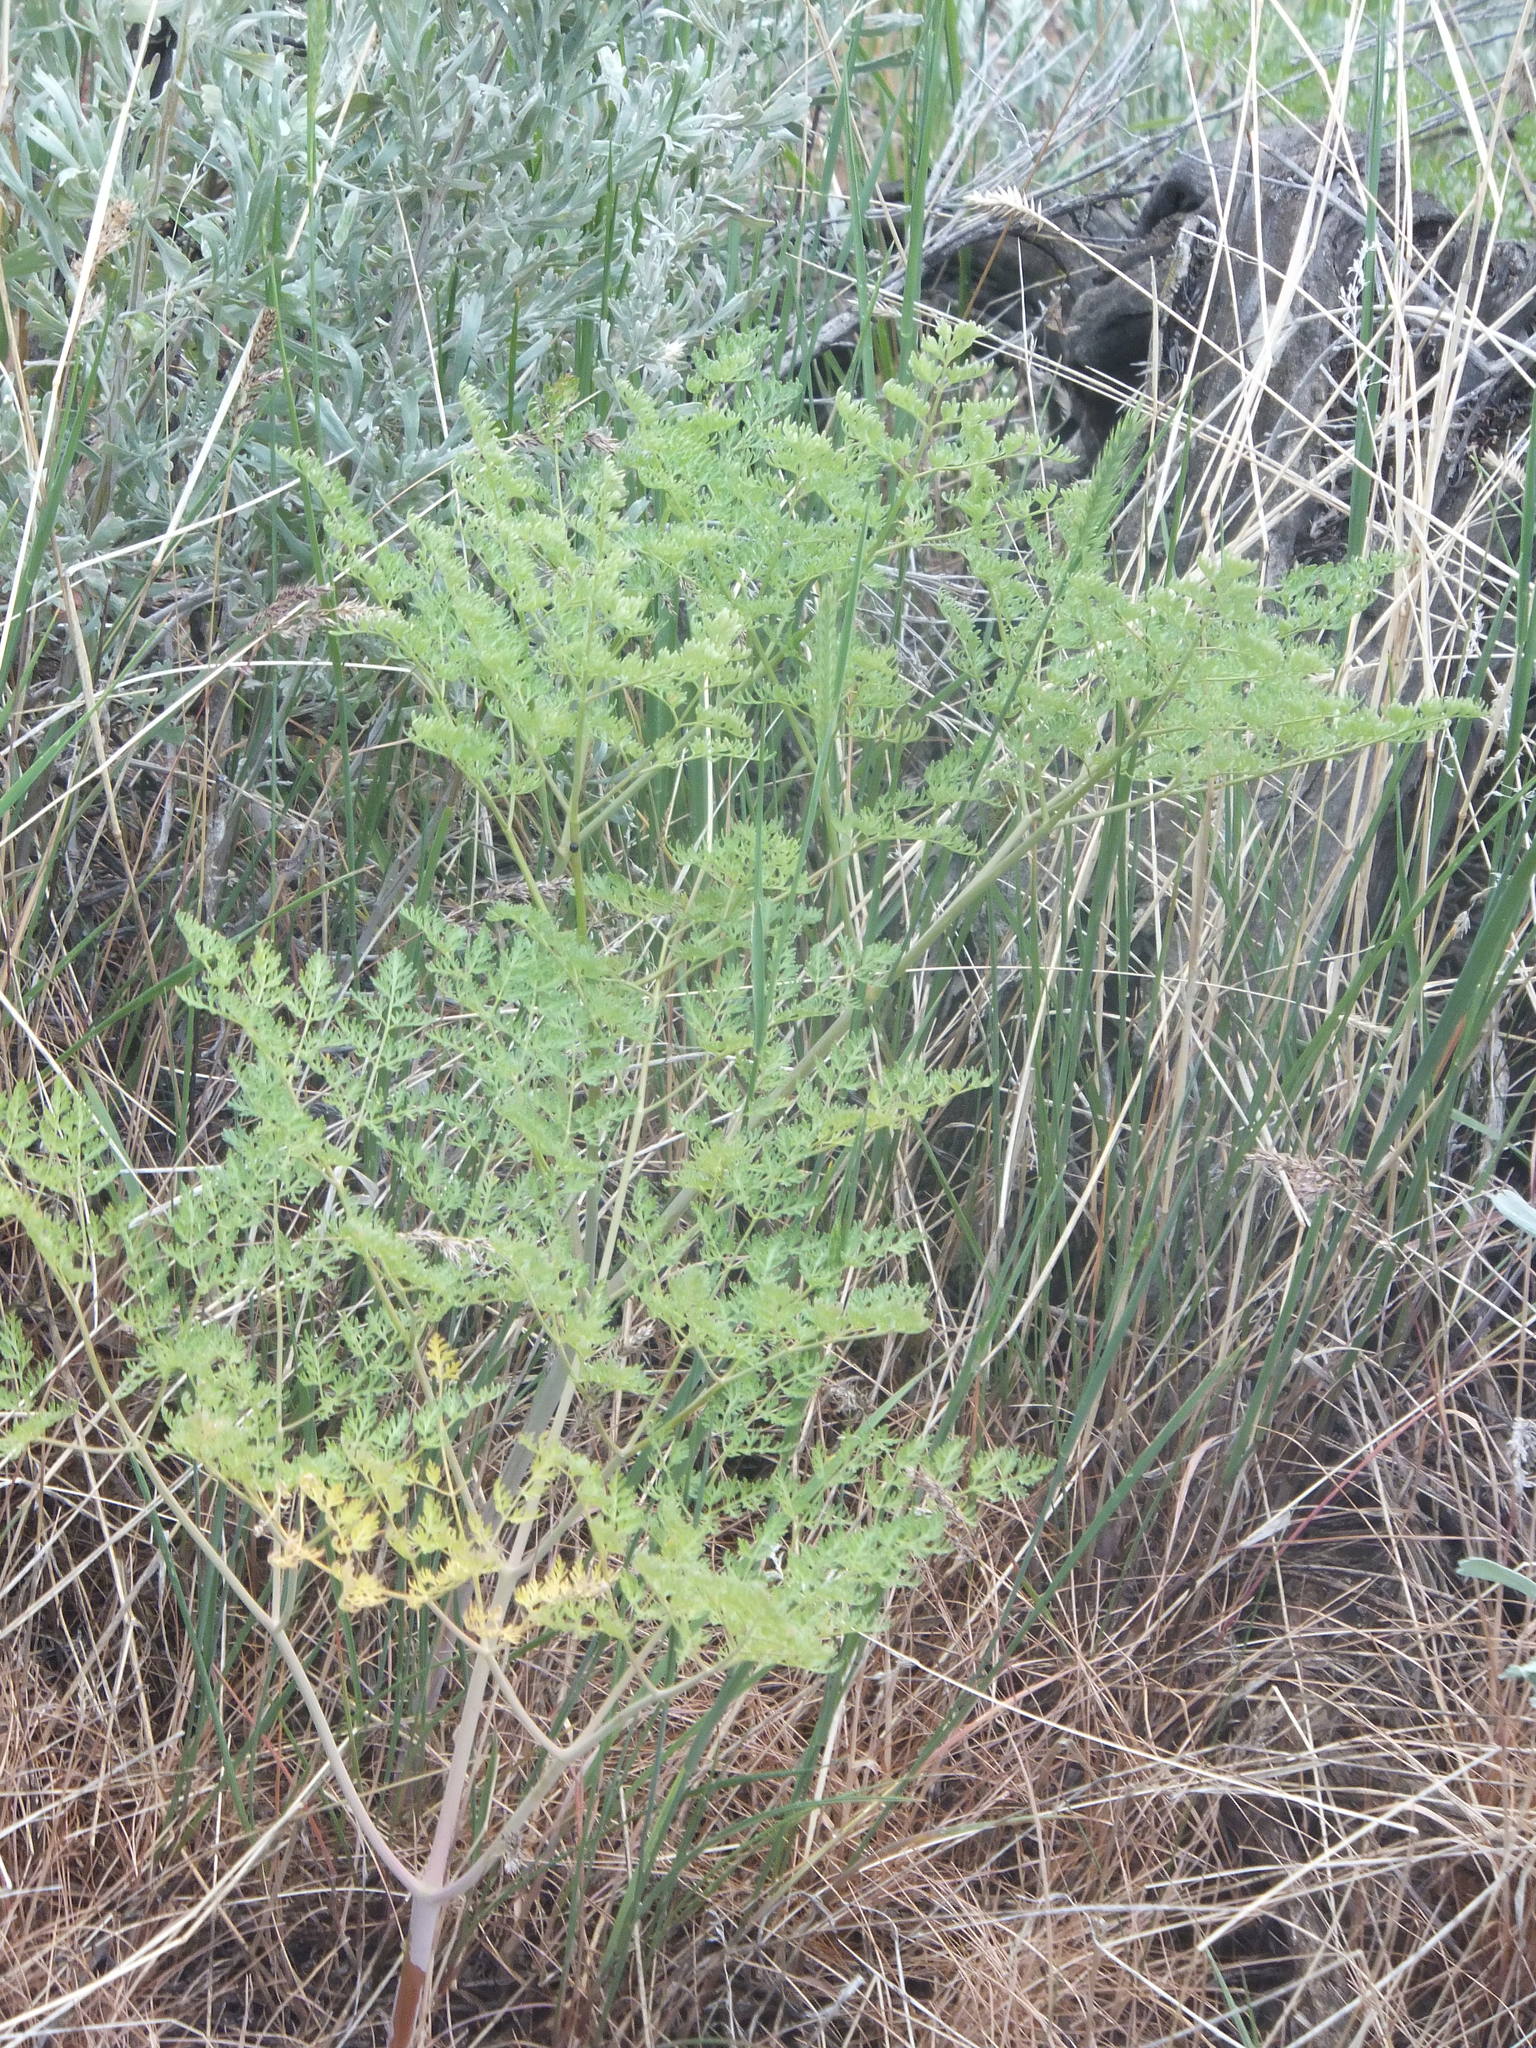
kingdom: Plantae
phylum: Tracheophyta
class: Magnoliopsida
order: Apiales
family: Apiaceae
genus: Lomatium
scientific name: Lomatium multifidum
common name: Carrot-leaved biscuitroot
